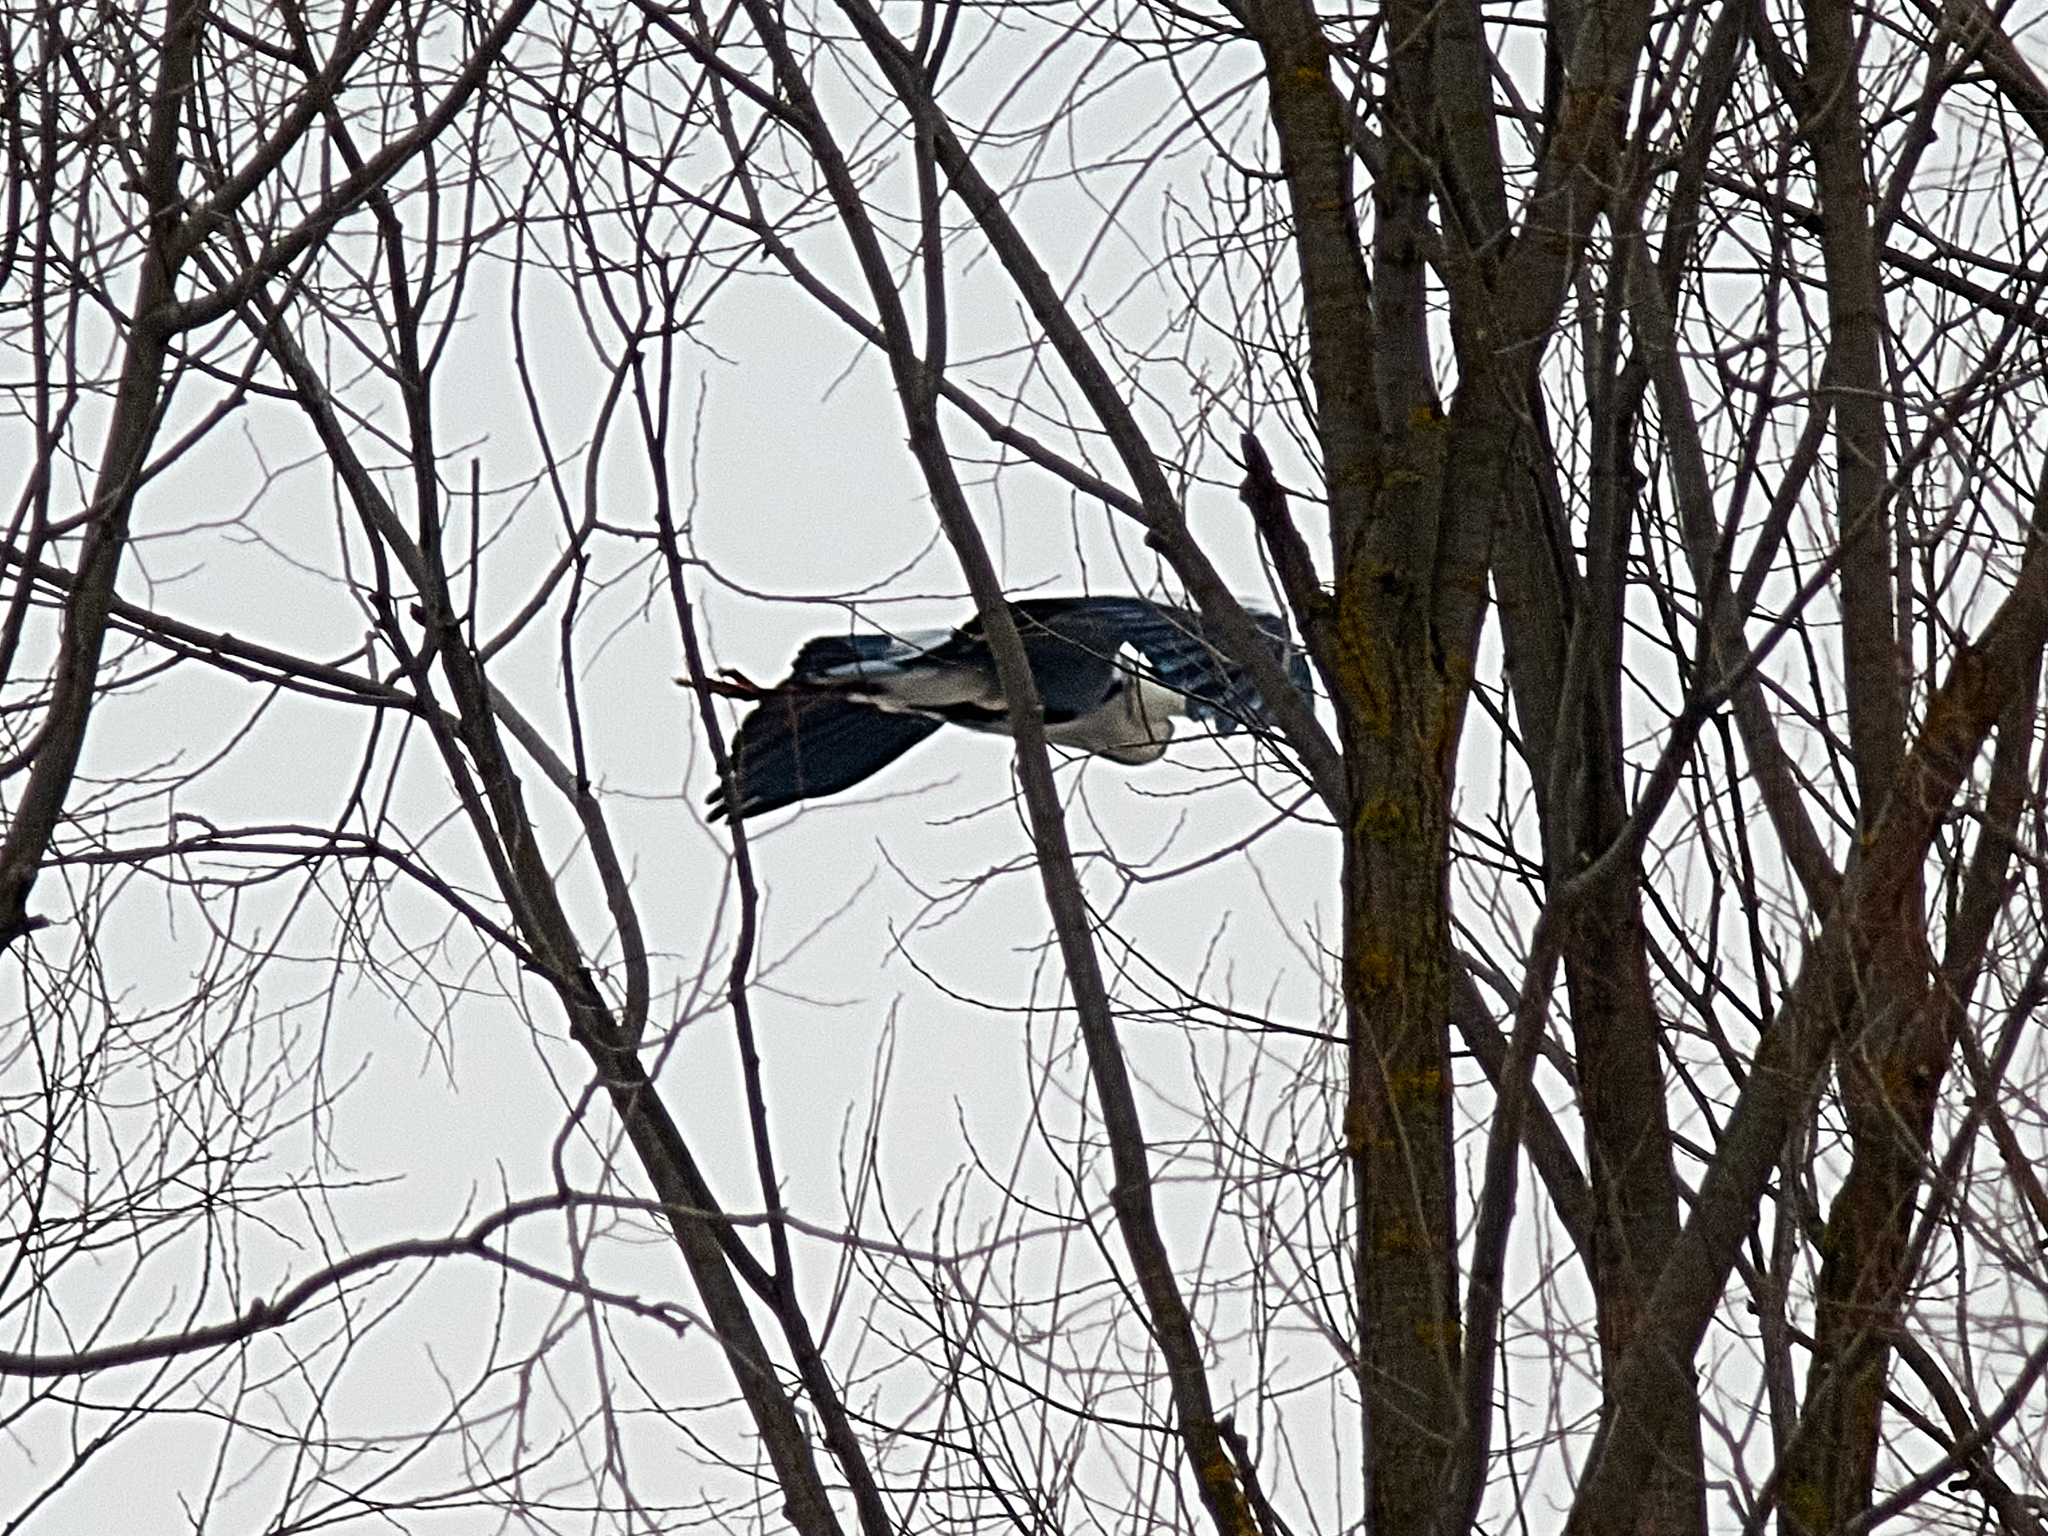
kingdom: Animalia
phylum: Chordata
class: Aves
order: Pelecaniformes
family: Ardeidae
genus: Ardea
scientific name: Ardea cinerea
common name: Grey heron
